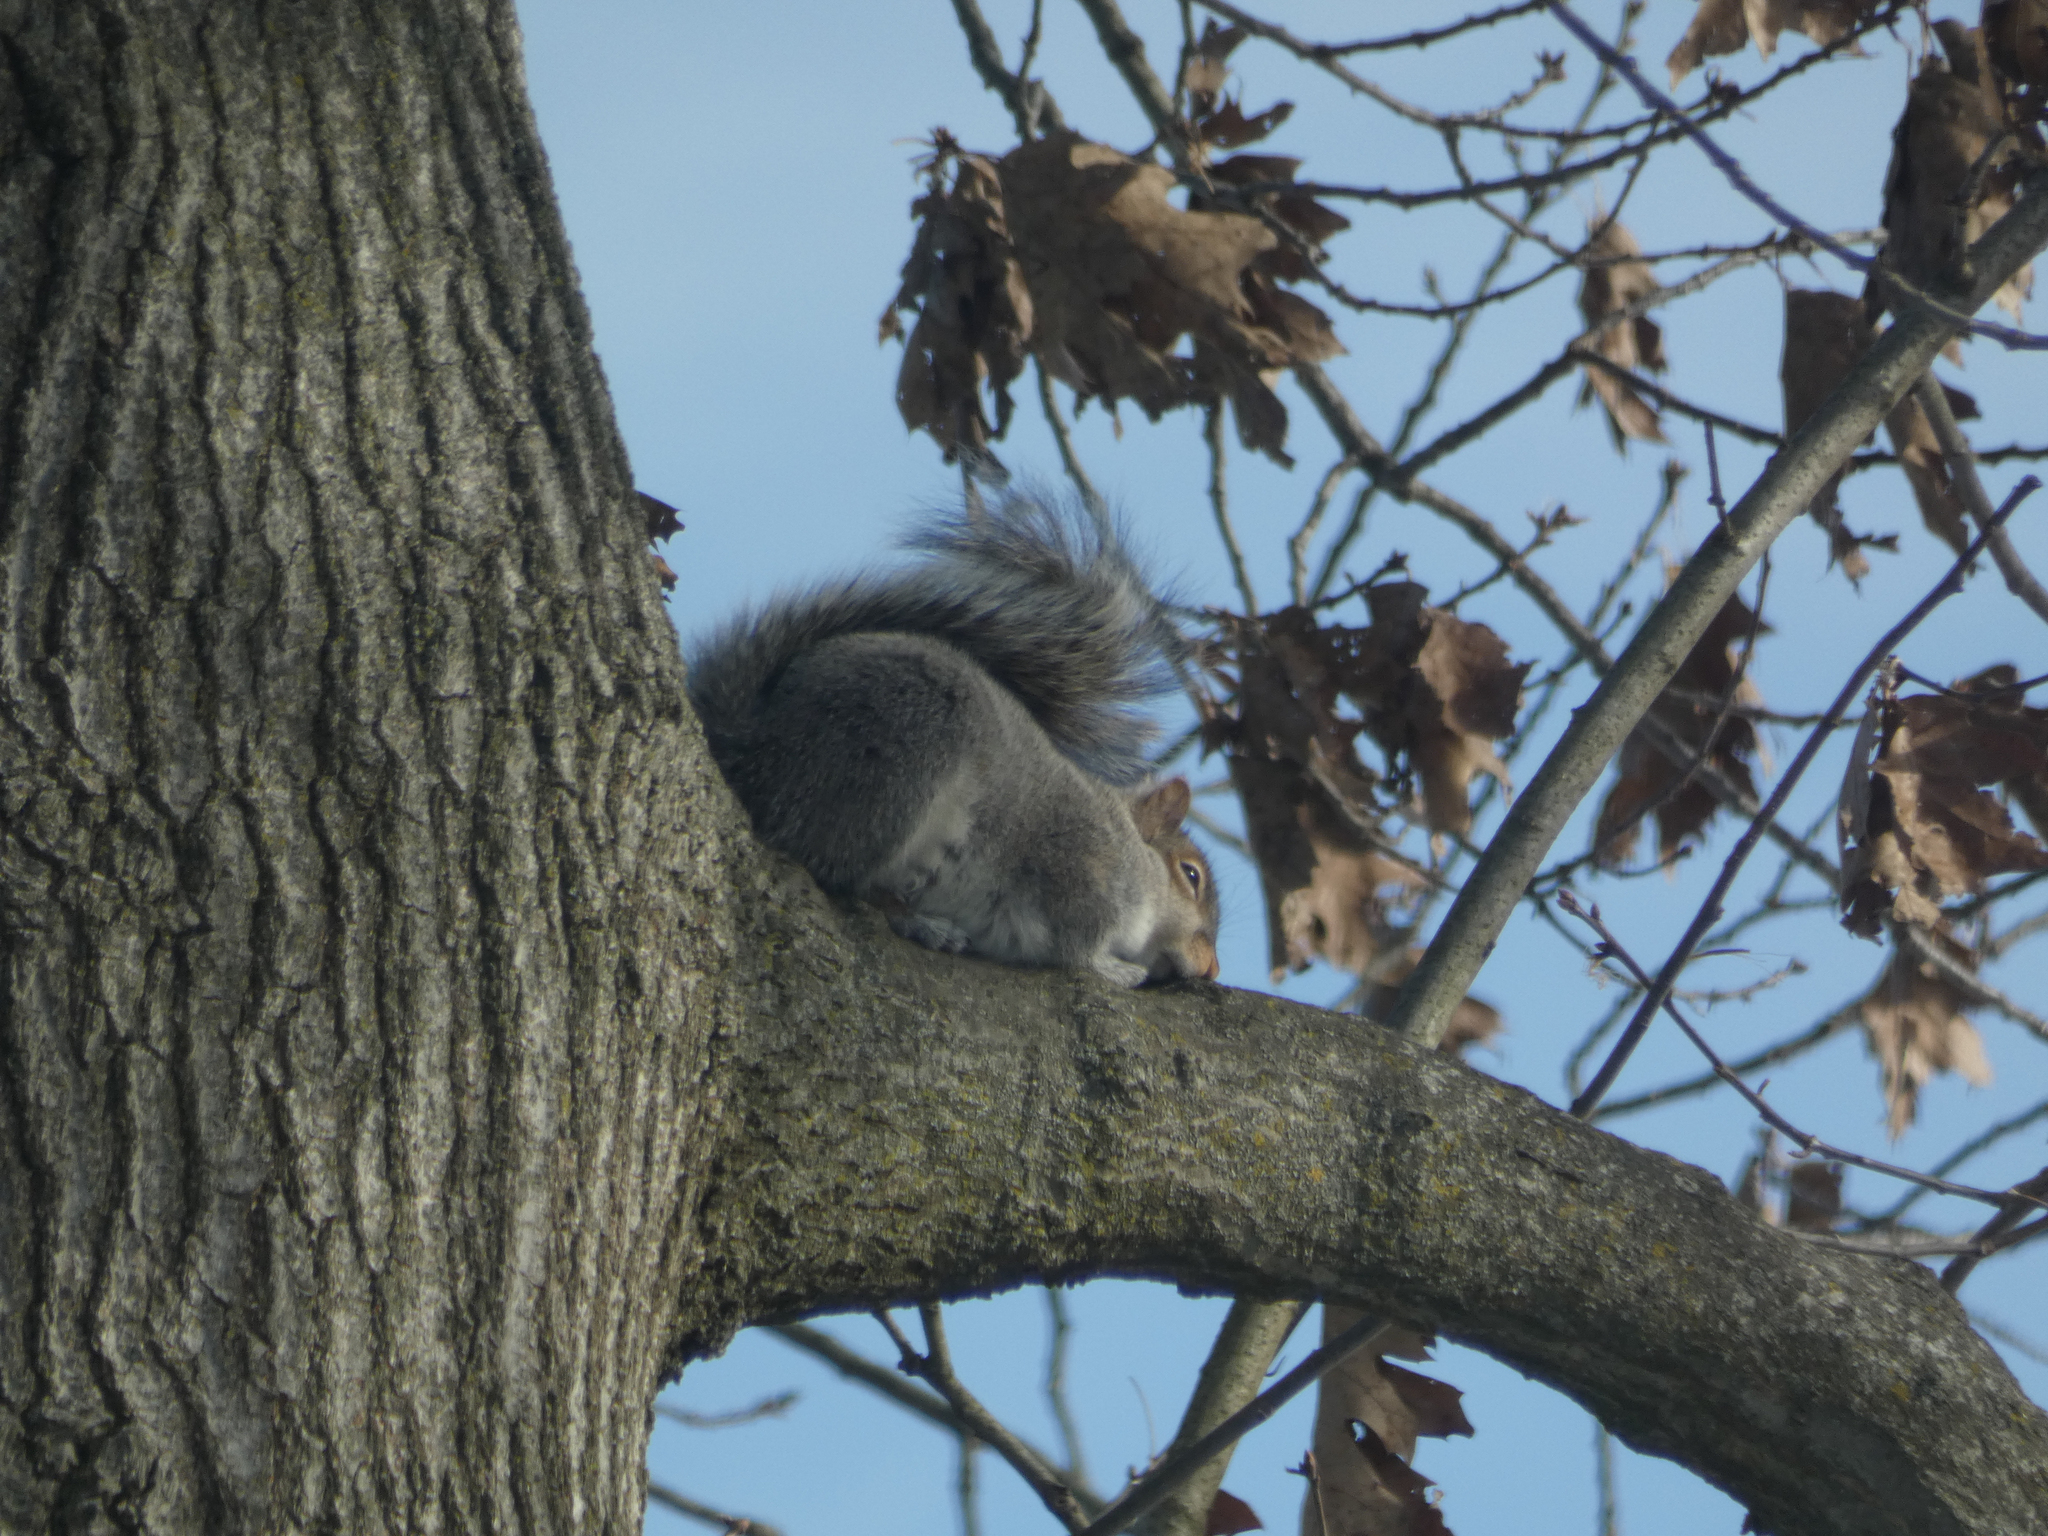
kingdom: Animalia
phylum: Chordata
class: Mammalia
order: Rodentia
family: Sciuridae
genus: Sciurus
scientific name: Sciurus carolinensis
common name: Eastern gray squirrel
